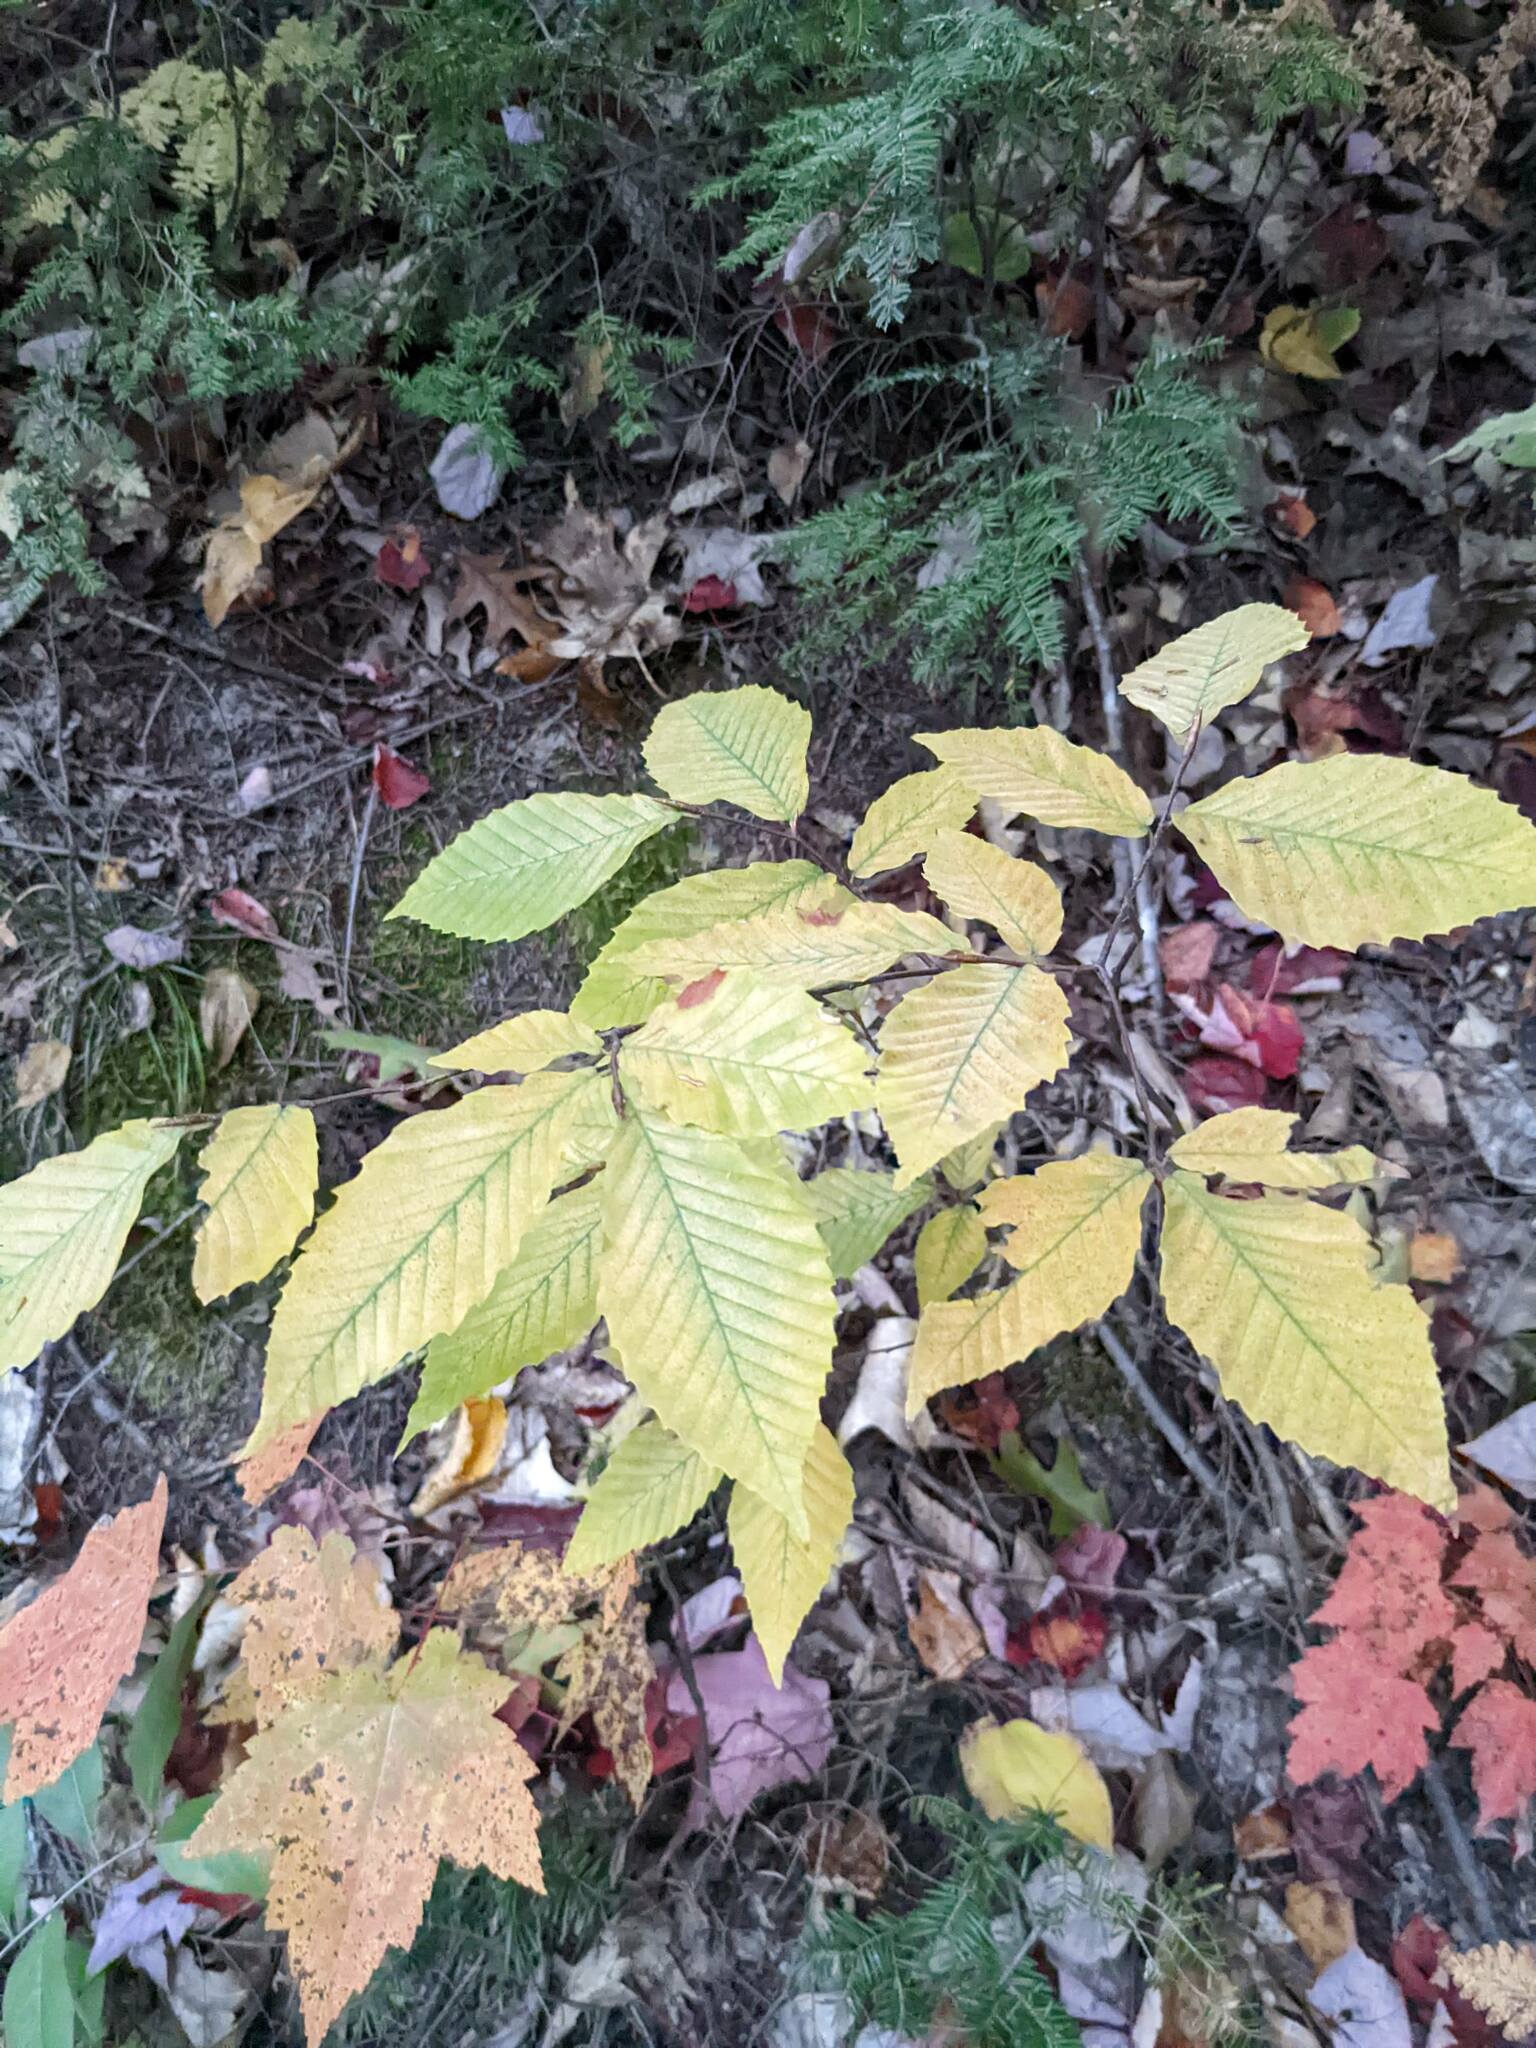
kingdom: Plantae
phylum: Tracheophyta
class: Magnoliopsida
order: Fagales
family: Fagaceae
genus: Fagus
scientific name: Fagus grandifolia
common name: American beech
